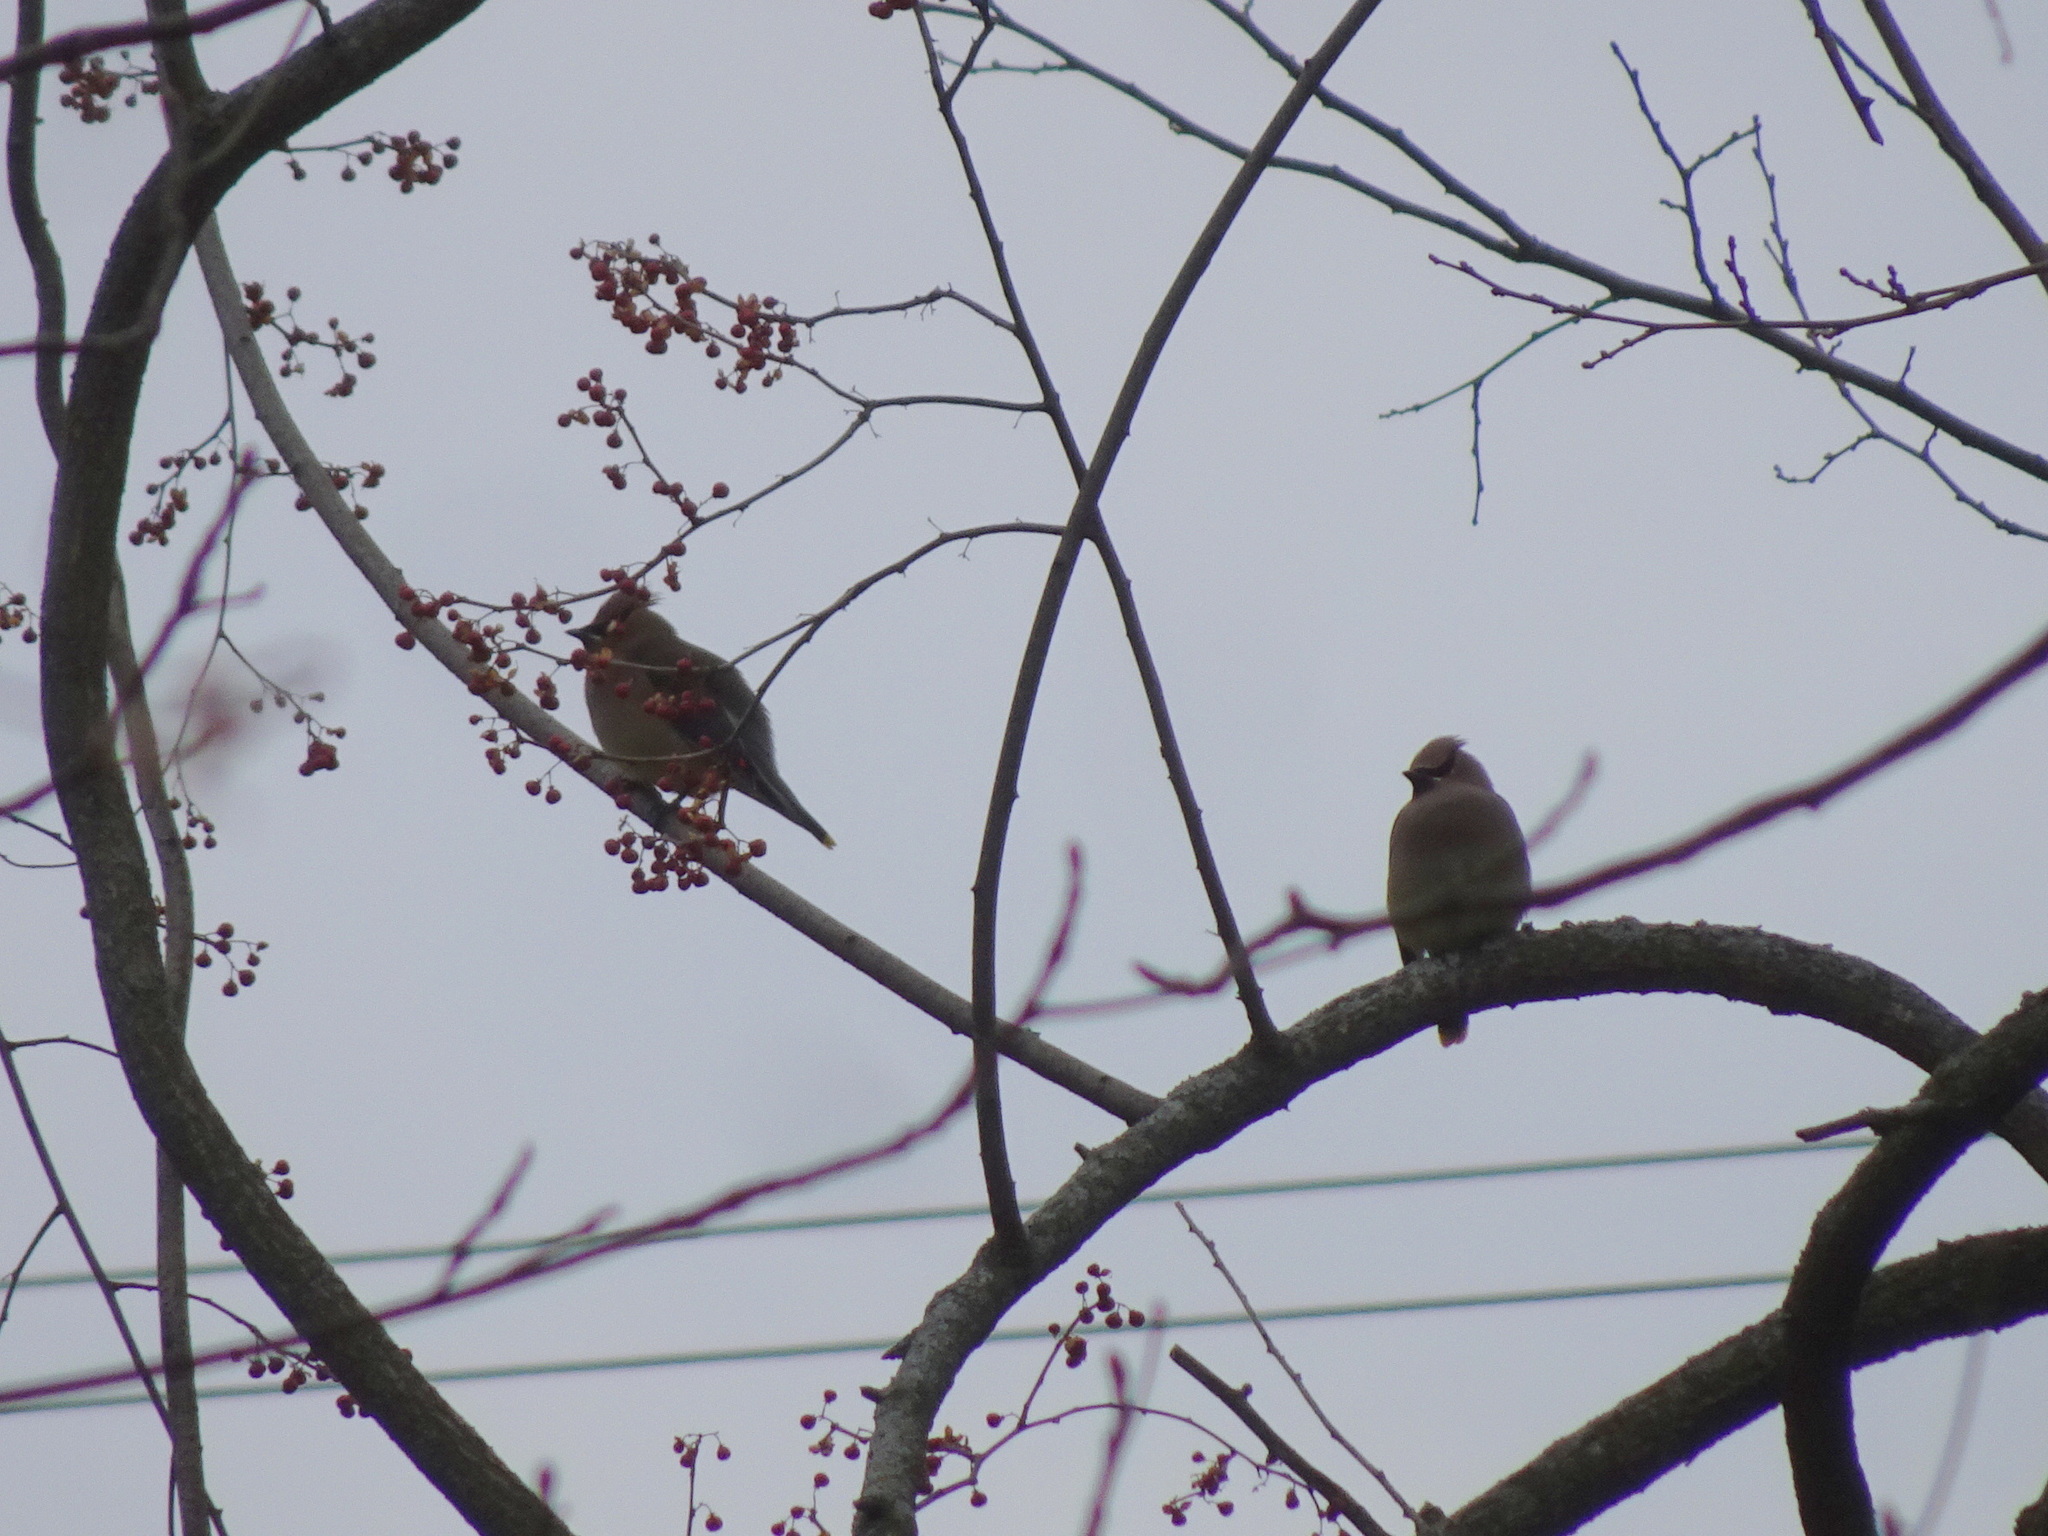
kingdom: Animalia
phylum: Chordata
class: Aves
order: Passeriformes
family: Bombycillidae
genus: Bombycilla
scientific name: Bombycilla cedrorum
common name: Cedar waxwing
